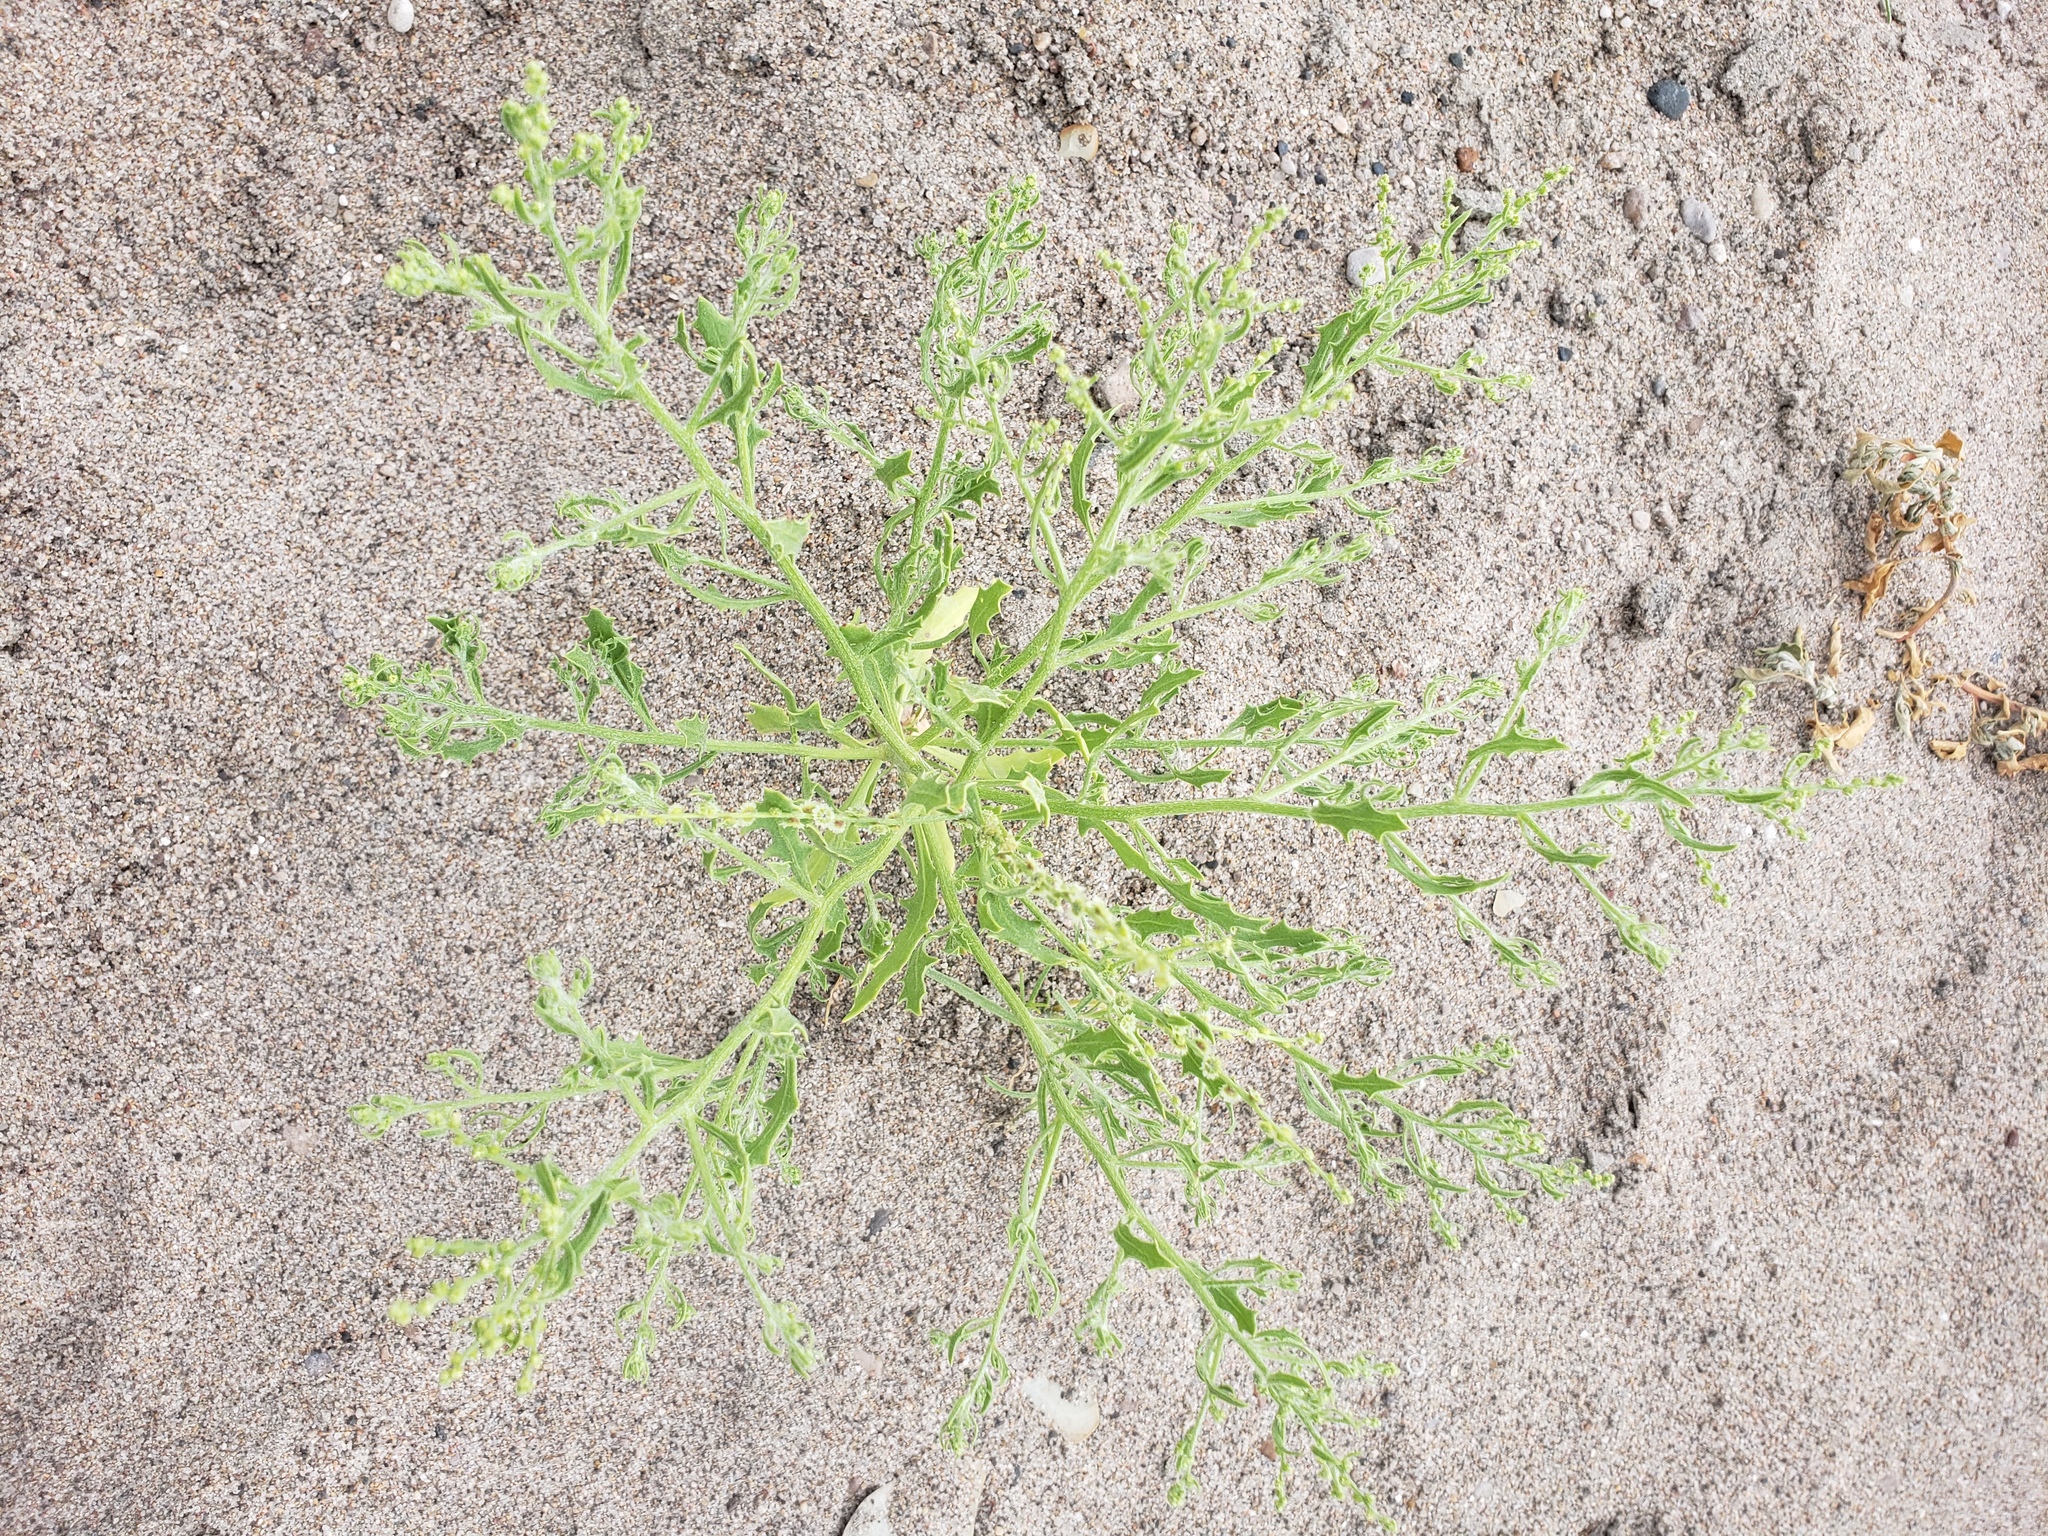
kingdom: Plantae
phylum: Tracheophyta
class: Magnoliopsida
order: Caryophyllales
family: Amaranthaceae
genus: Dysphania
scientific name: Dysphania atriplicifolia
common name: Plains tumbleweed
